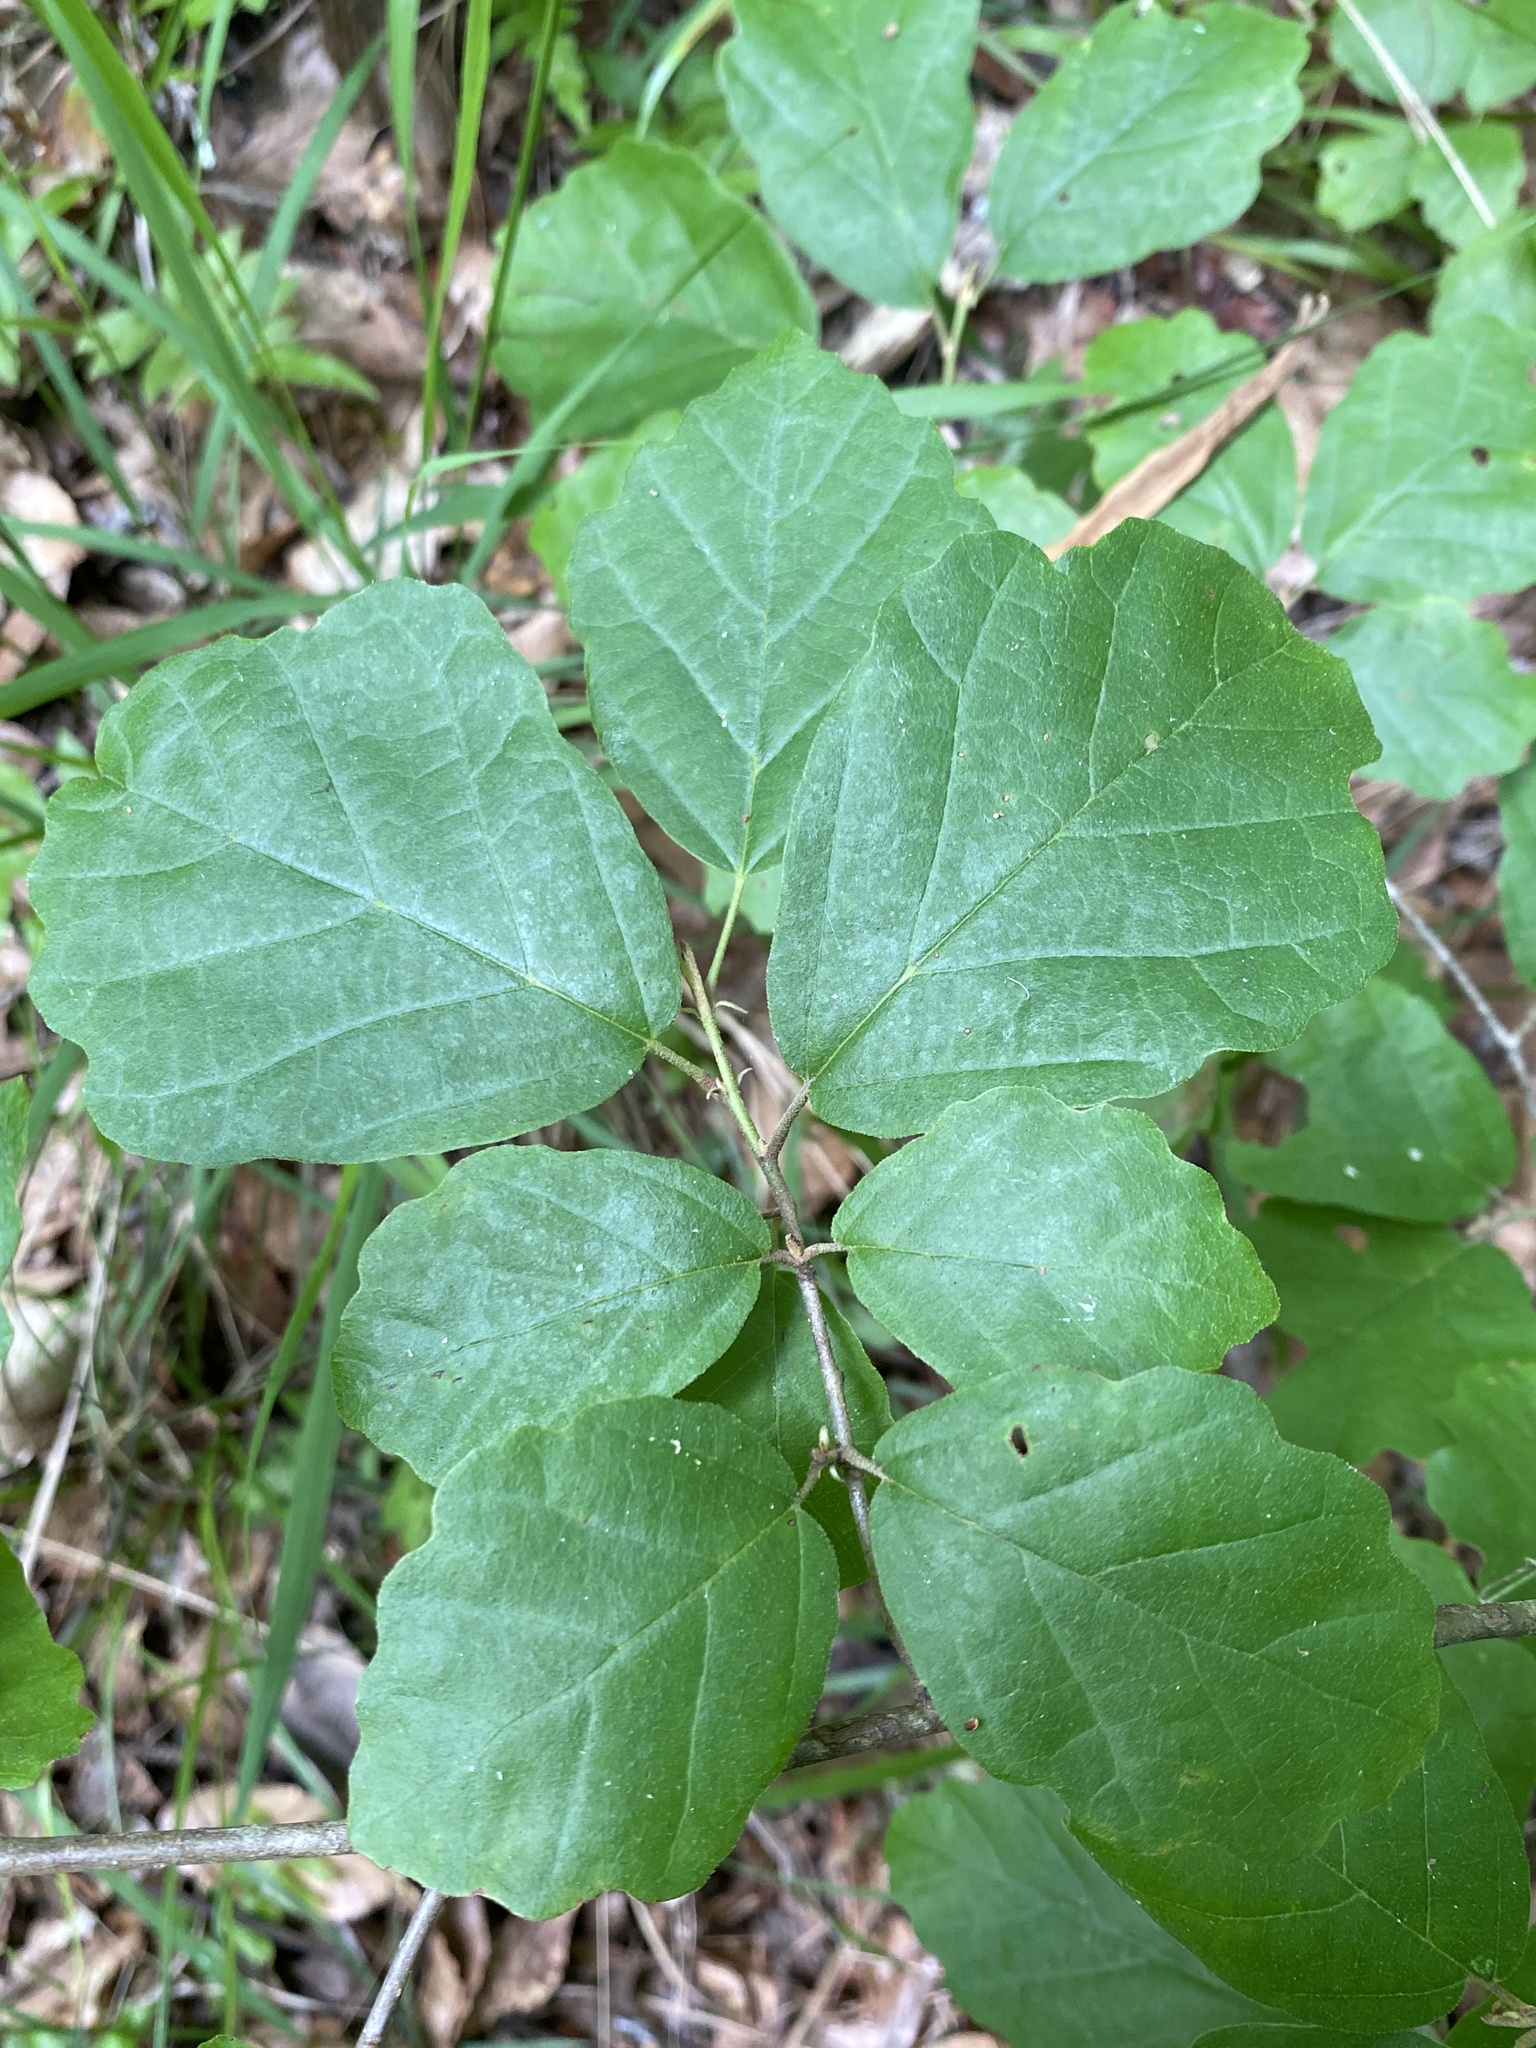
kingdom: Plantae
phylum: Tracheophyta
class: Magnoliopsida
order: Saxifragales
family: Hamamelidaceae
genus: Hamamelis
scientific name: Hamamelis virginiana
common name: Witch-hazel
